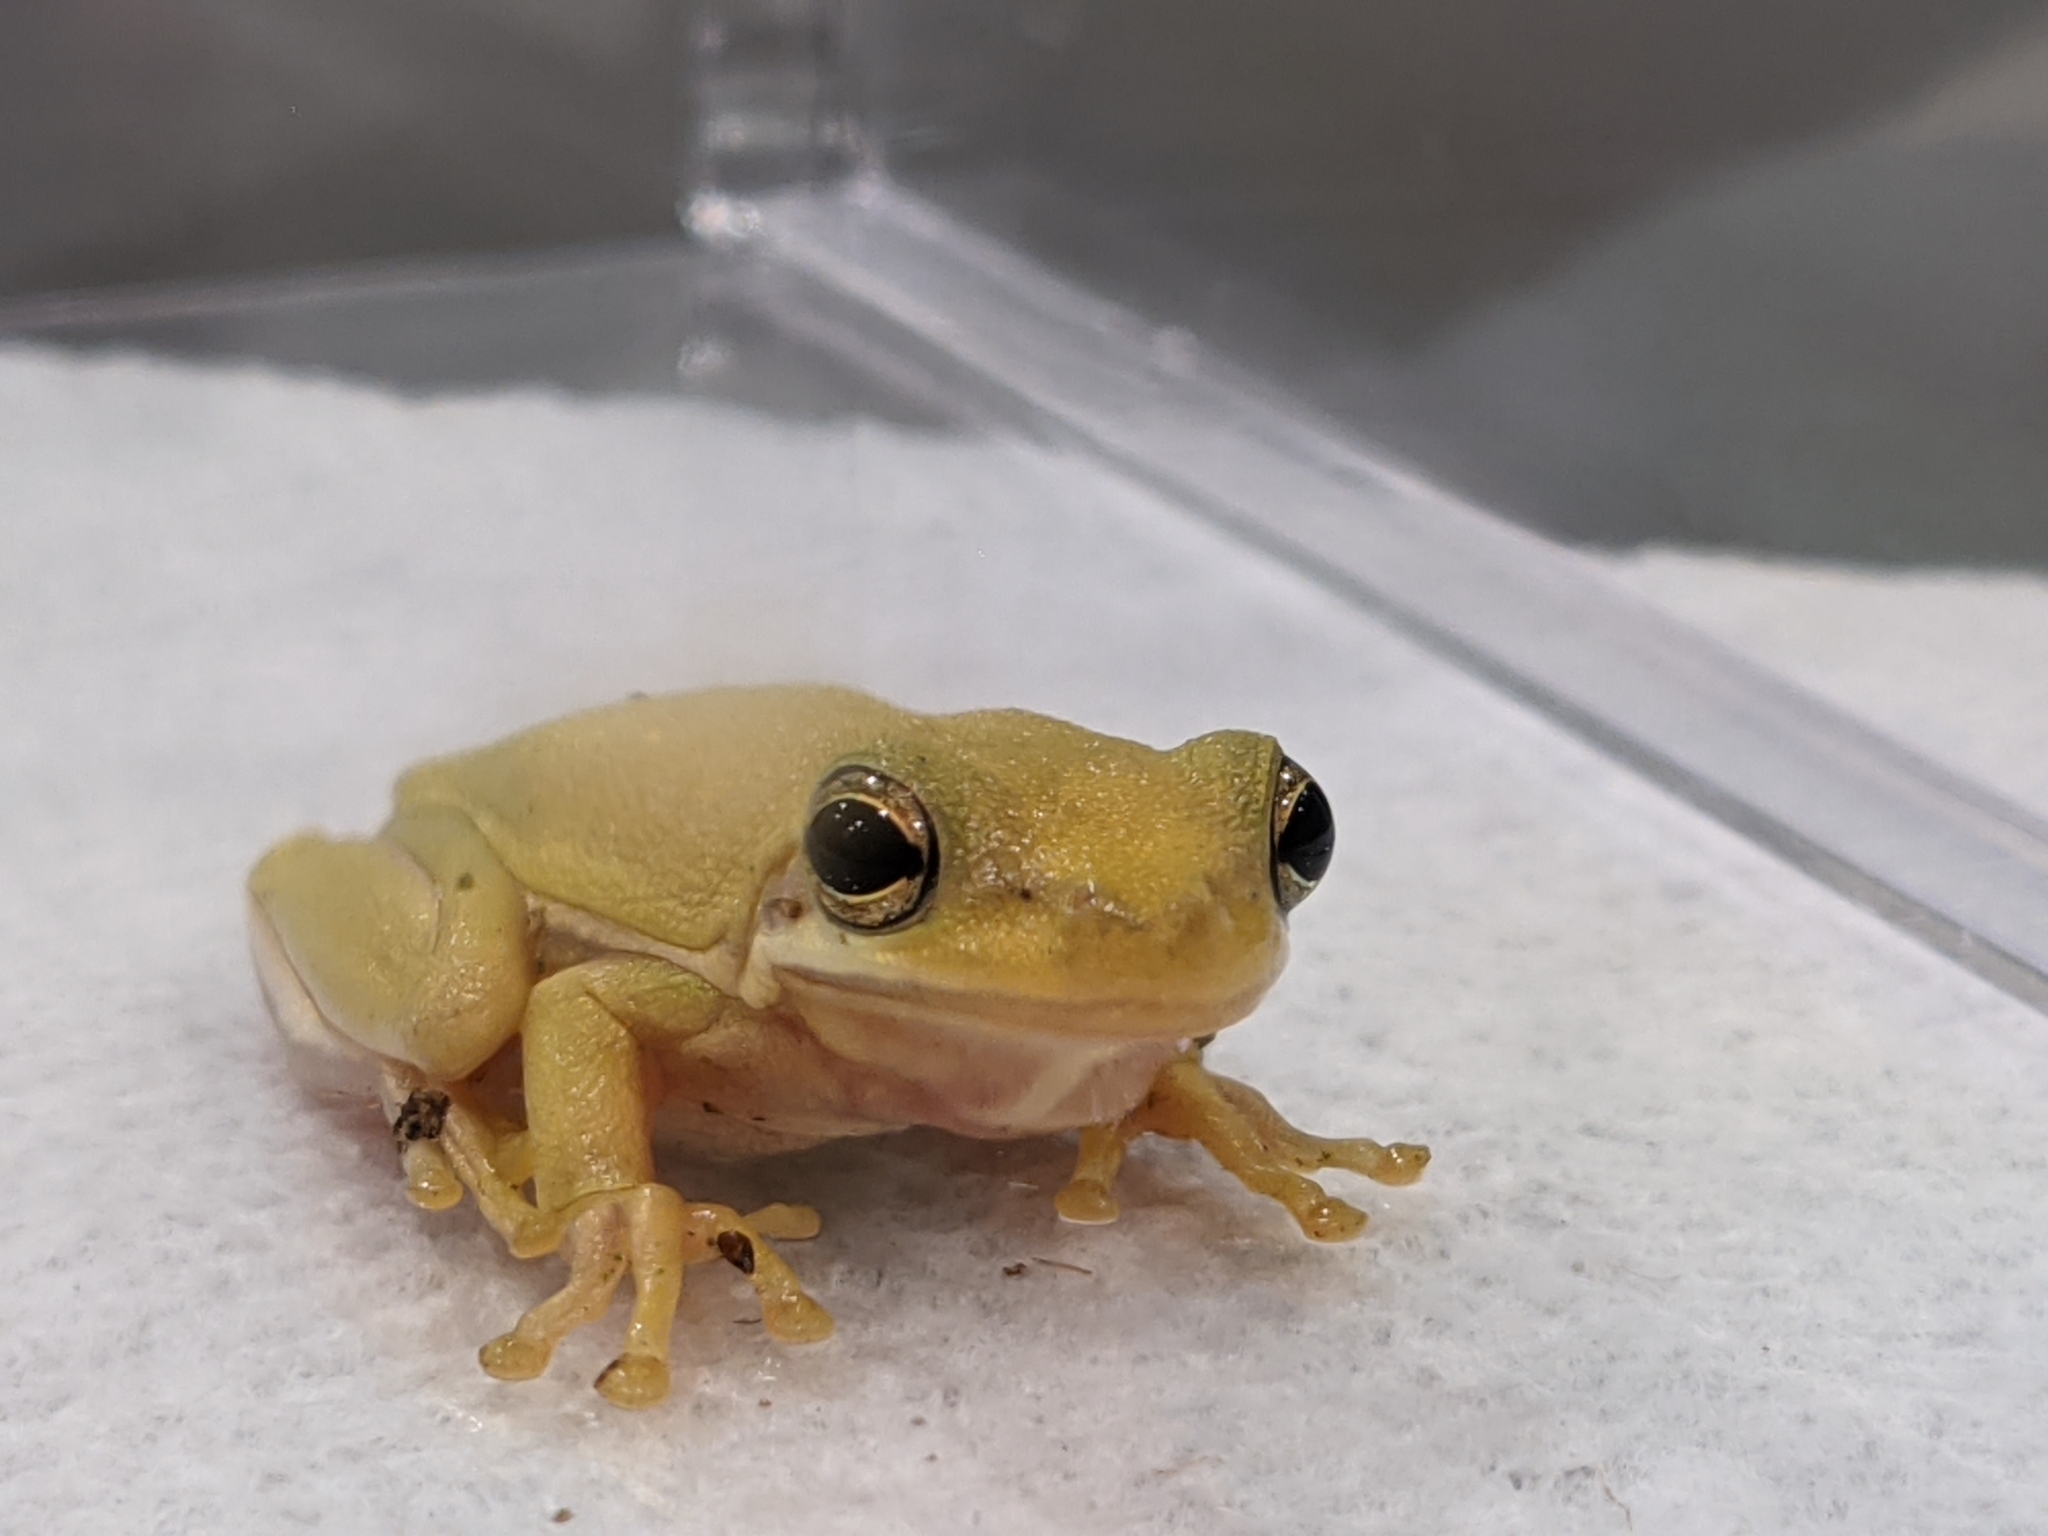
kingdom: Animalia
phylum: Chordata
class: Amphibia
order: Anura
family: Hylidae
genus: Dryophytes
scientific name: Dryophytes cinereus
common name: Green treefrog
